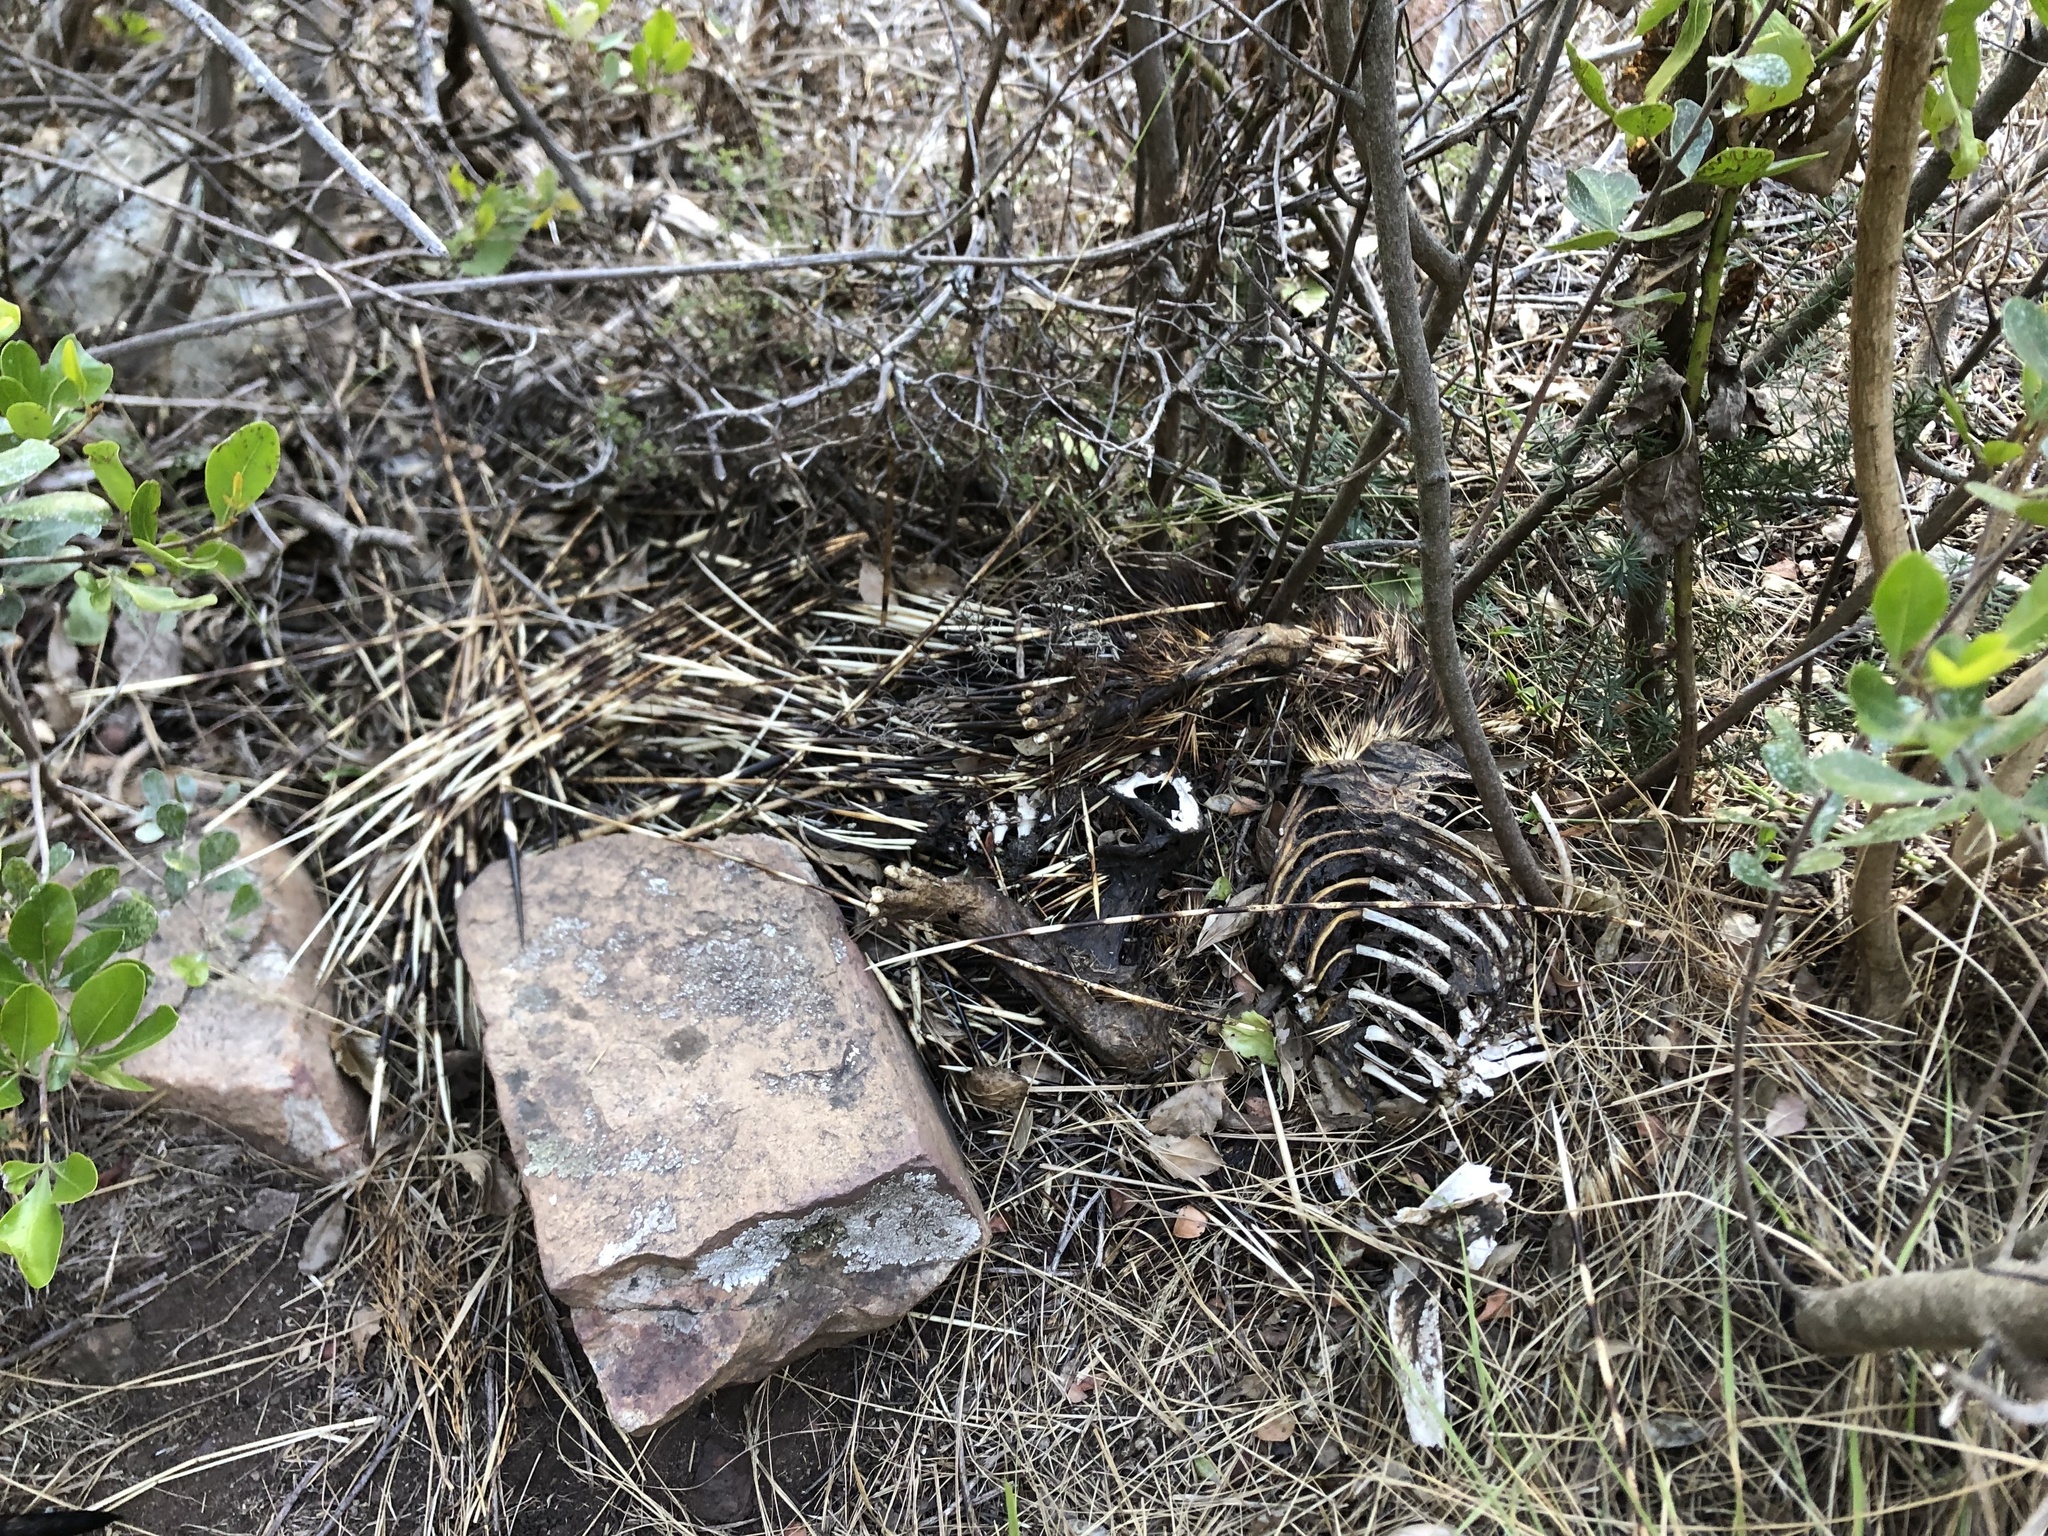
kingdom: Animalia
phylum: Chordata
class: Mammalia
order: Rodentia
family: Hystricidae
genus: Hystrix
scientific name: Hystrix africaeaustralis
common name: Cape porcupine
